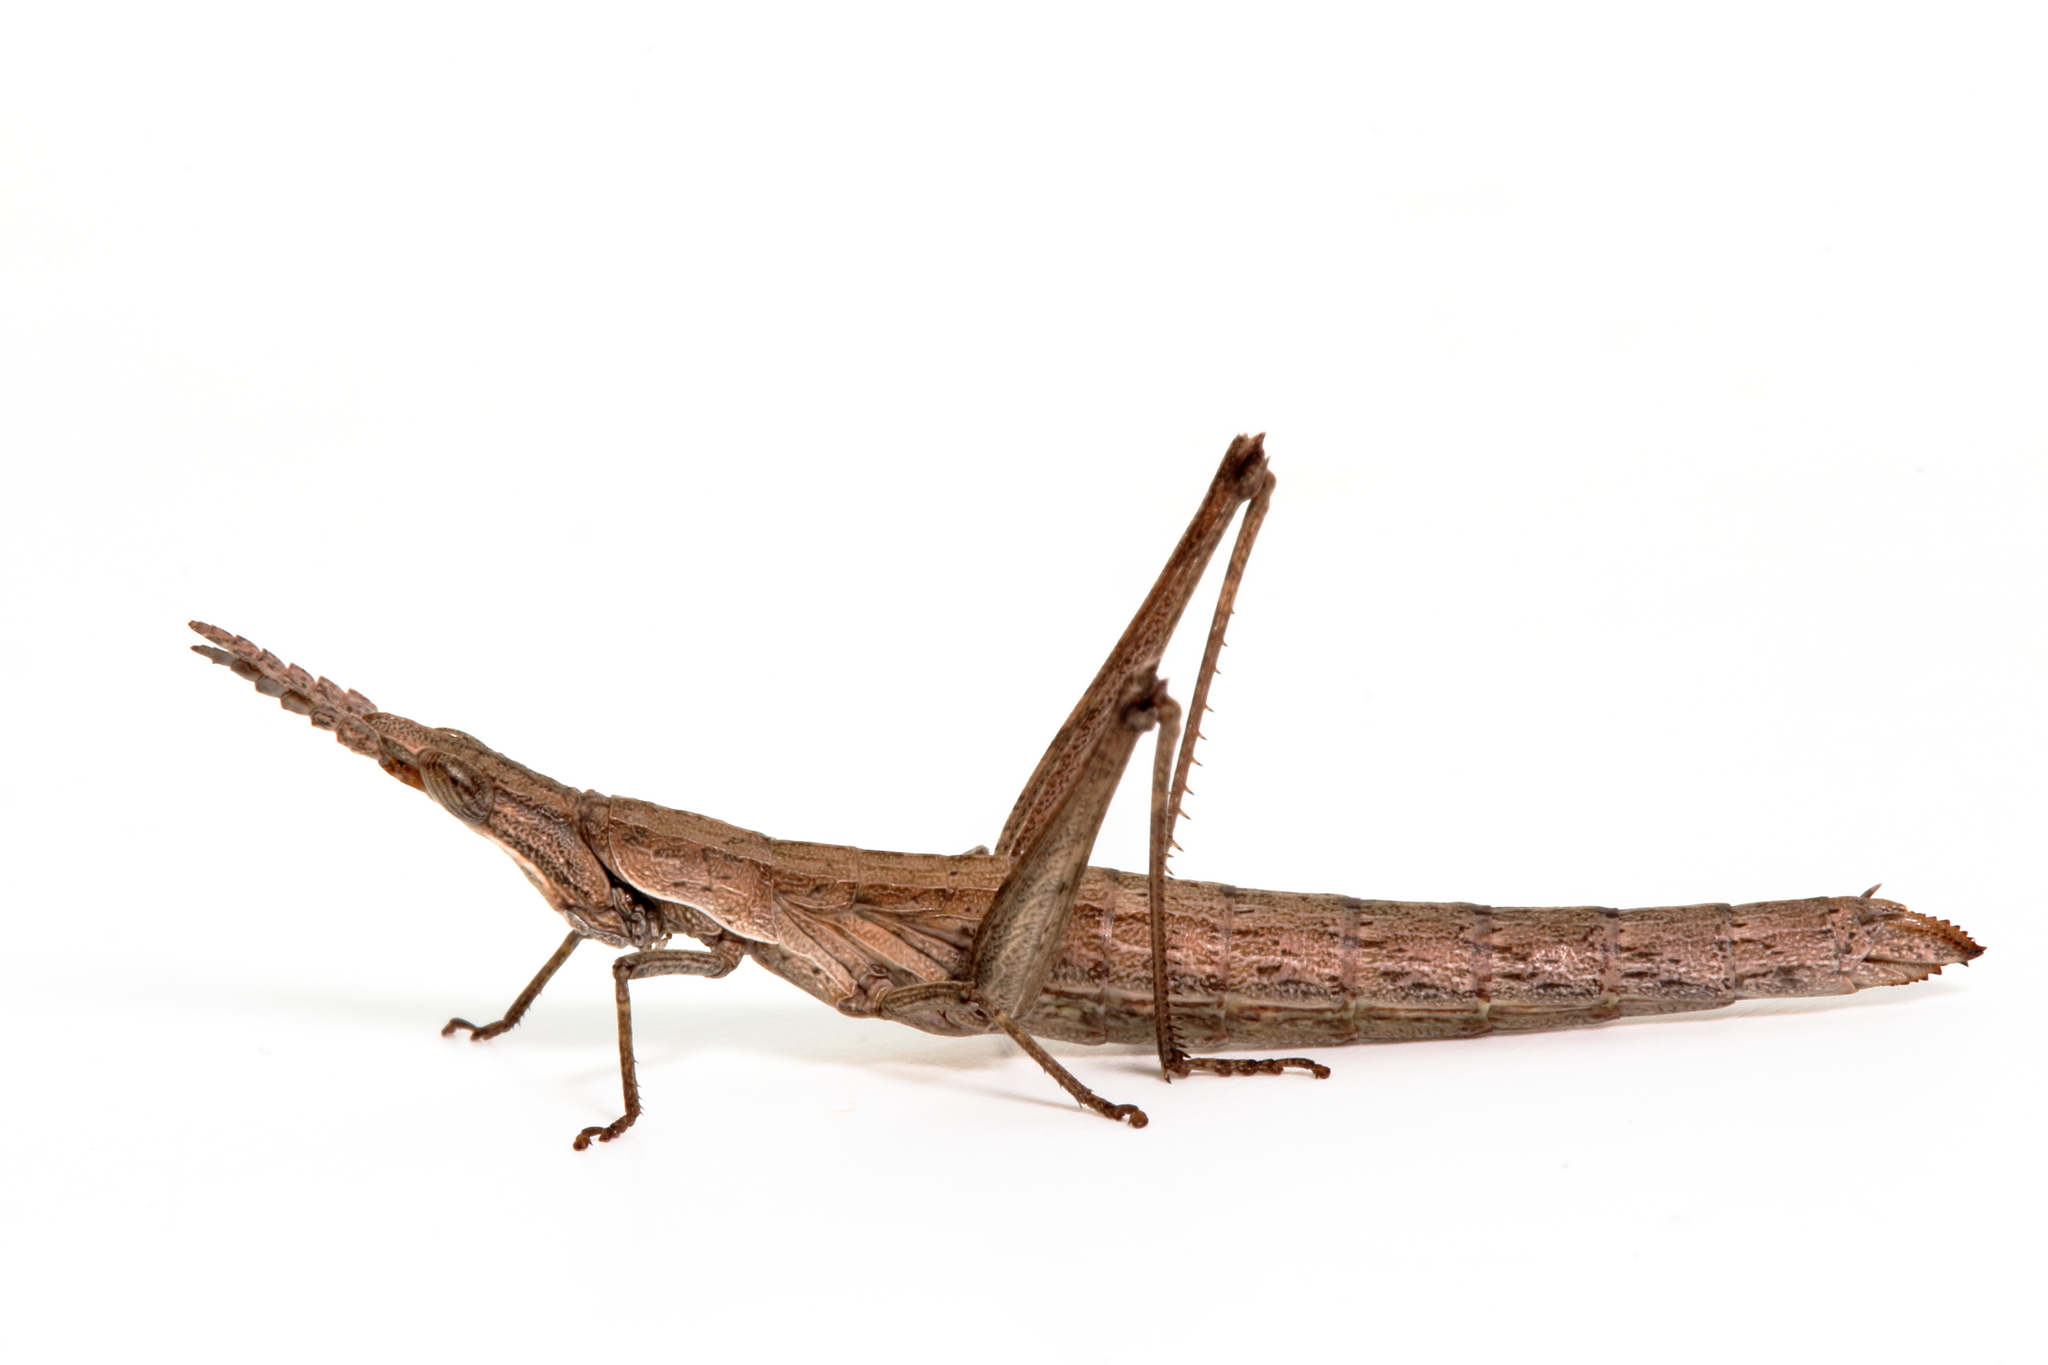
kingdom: Animalia
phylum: Arthropoda
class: Insecta
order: Orthoptera
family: Morabidae
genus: Keyacris
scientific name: Keyacris scurra
